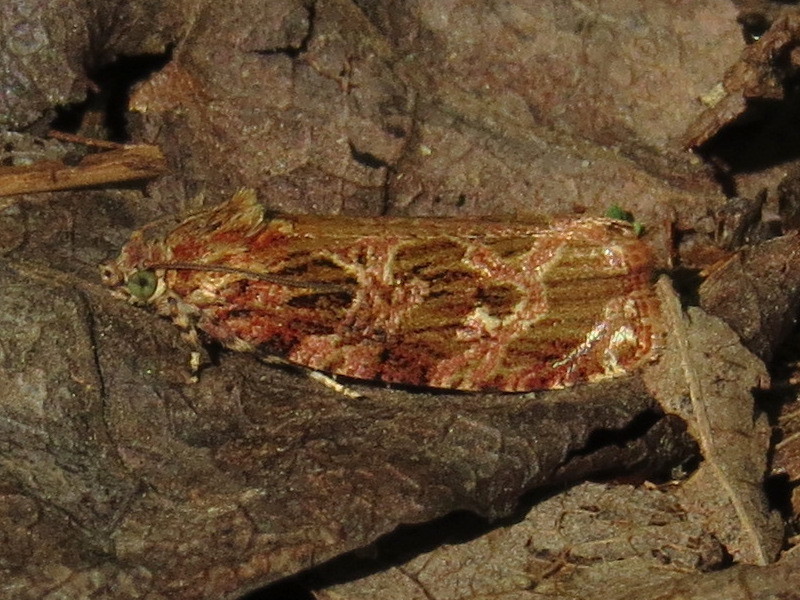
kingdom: Animalia
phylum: Arthropoda
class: Insecta
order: Lepidoptera
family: Tortricidae
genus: Phaecasiophora
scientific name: Phaecasiophora confixana
